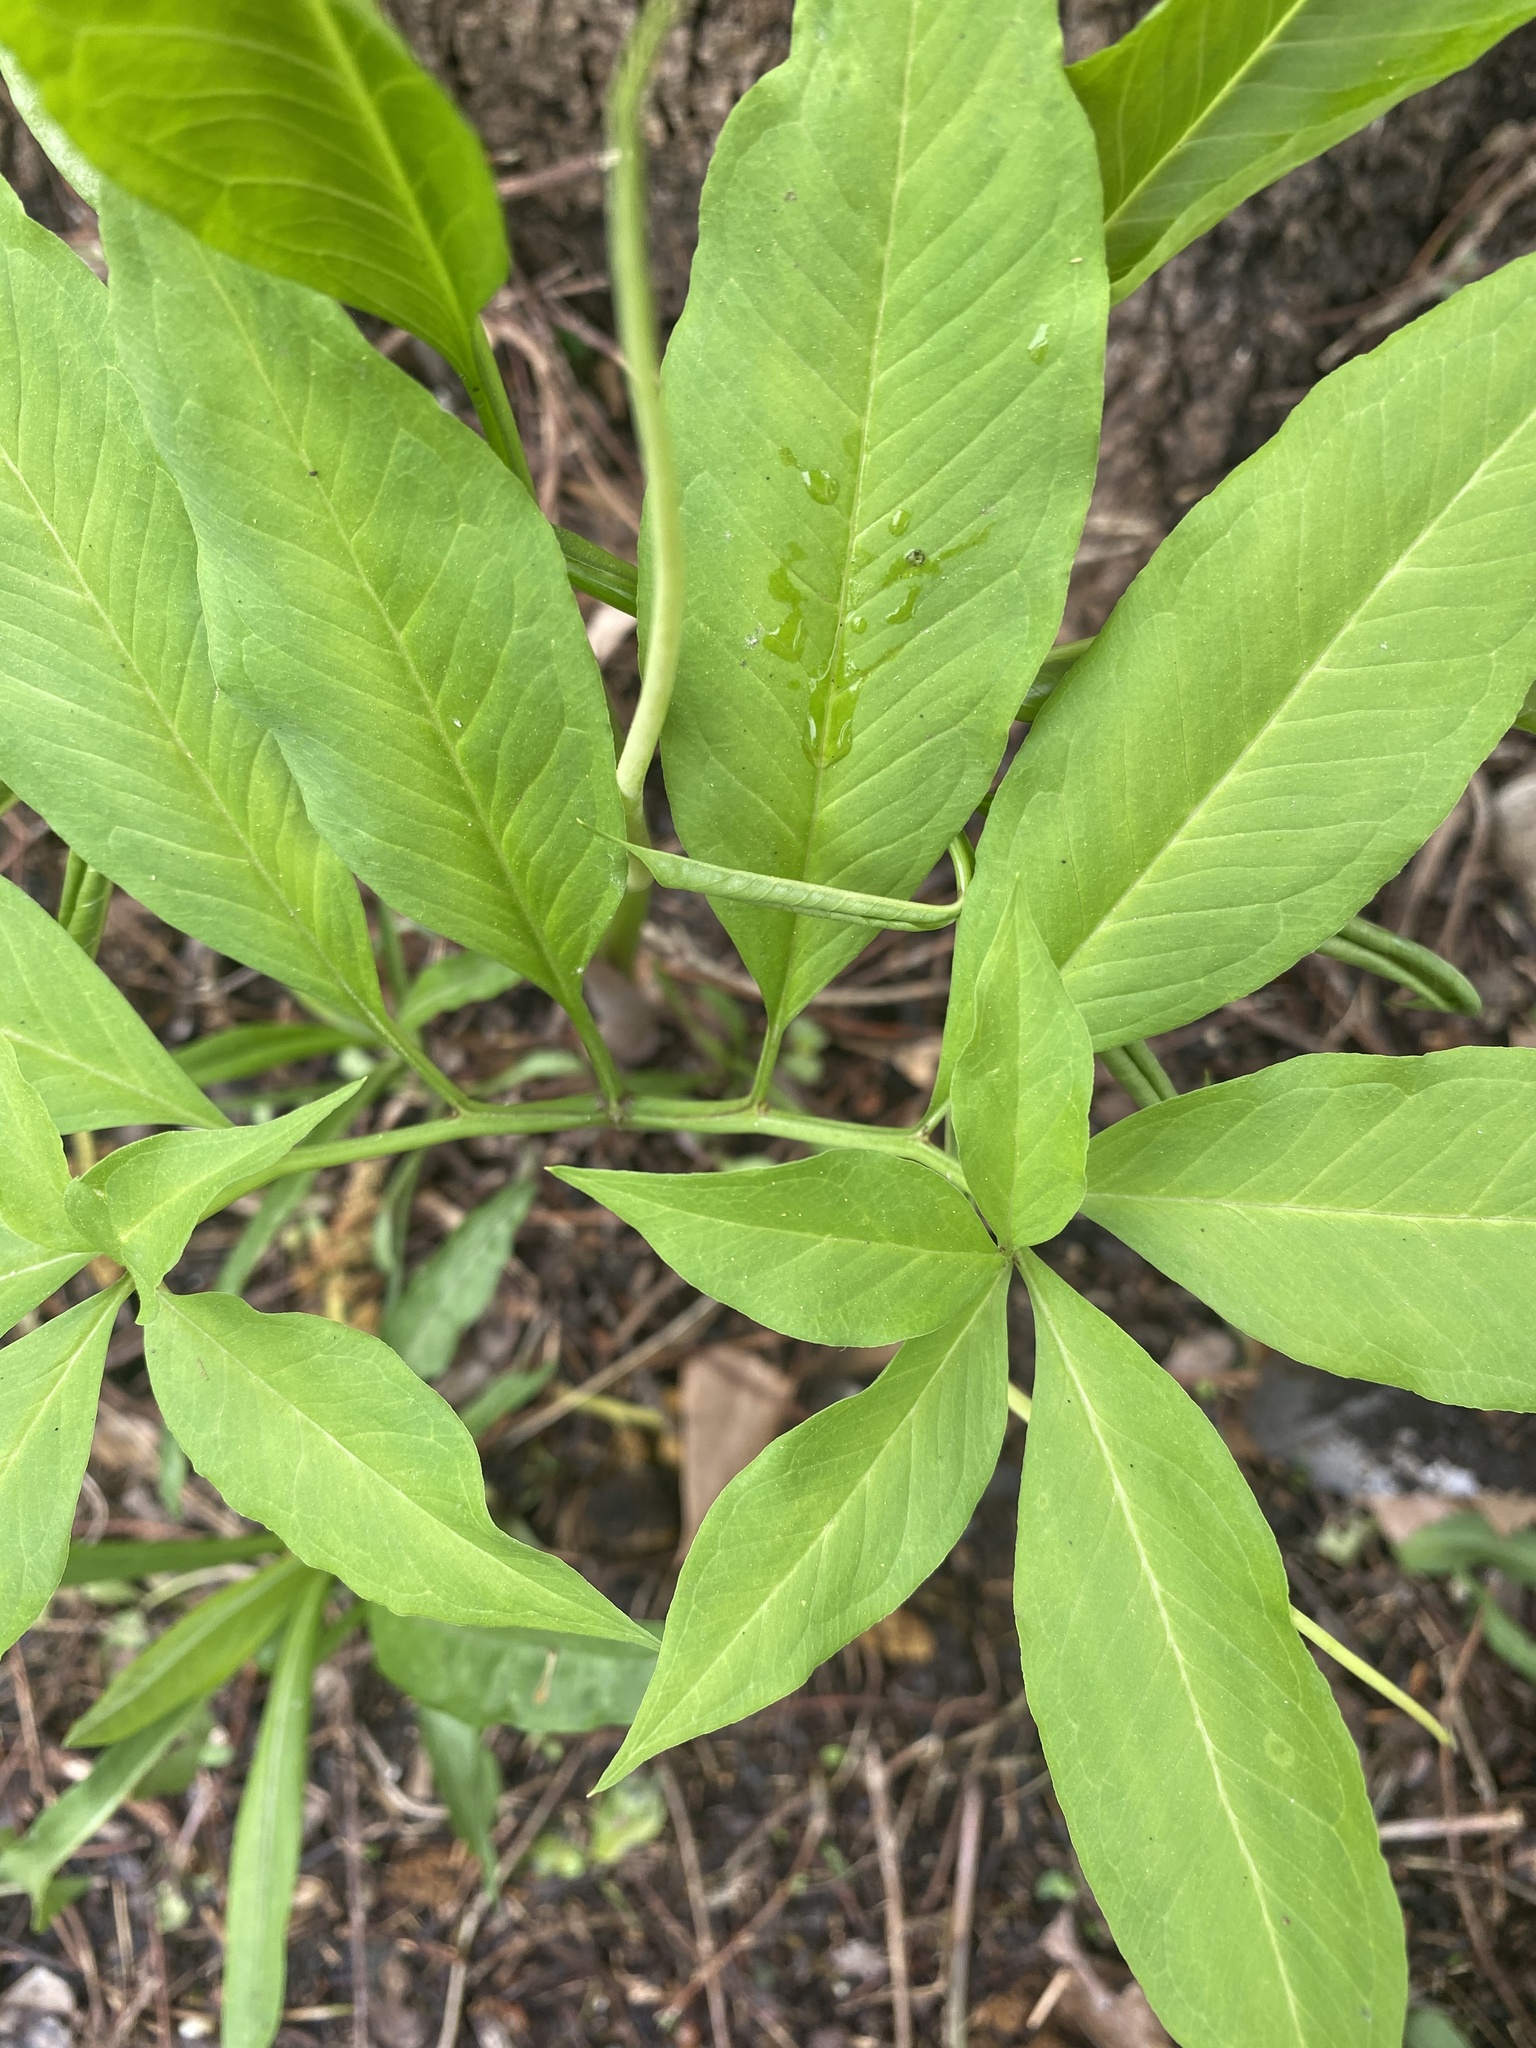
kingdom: Plantae
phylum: Tracheophyta
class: Liliopsida
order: Alismatales
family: Araceae
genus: Arisaema
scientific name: Arisaema dracontium
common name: Dragon-arum
